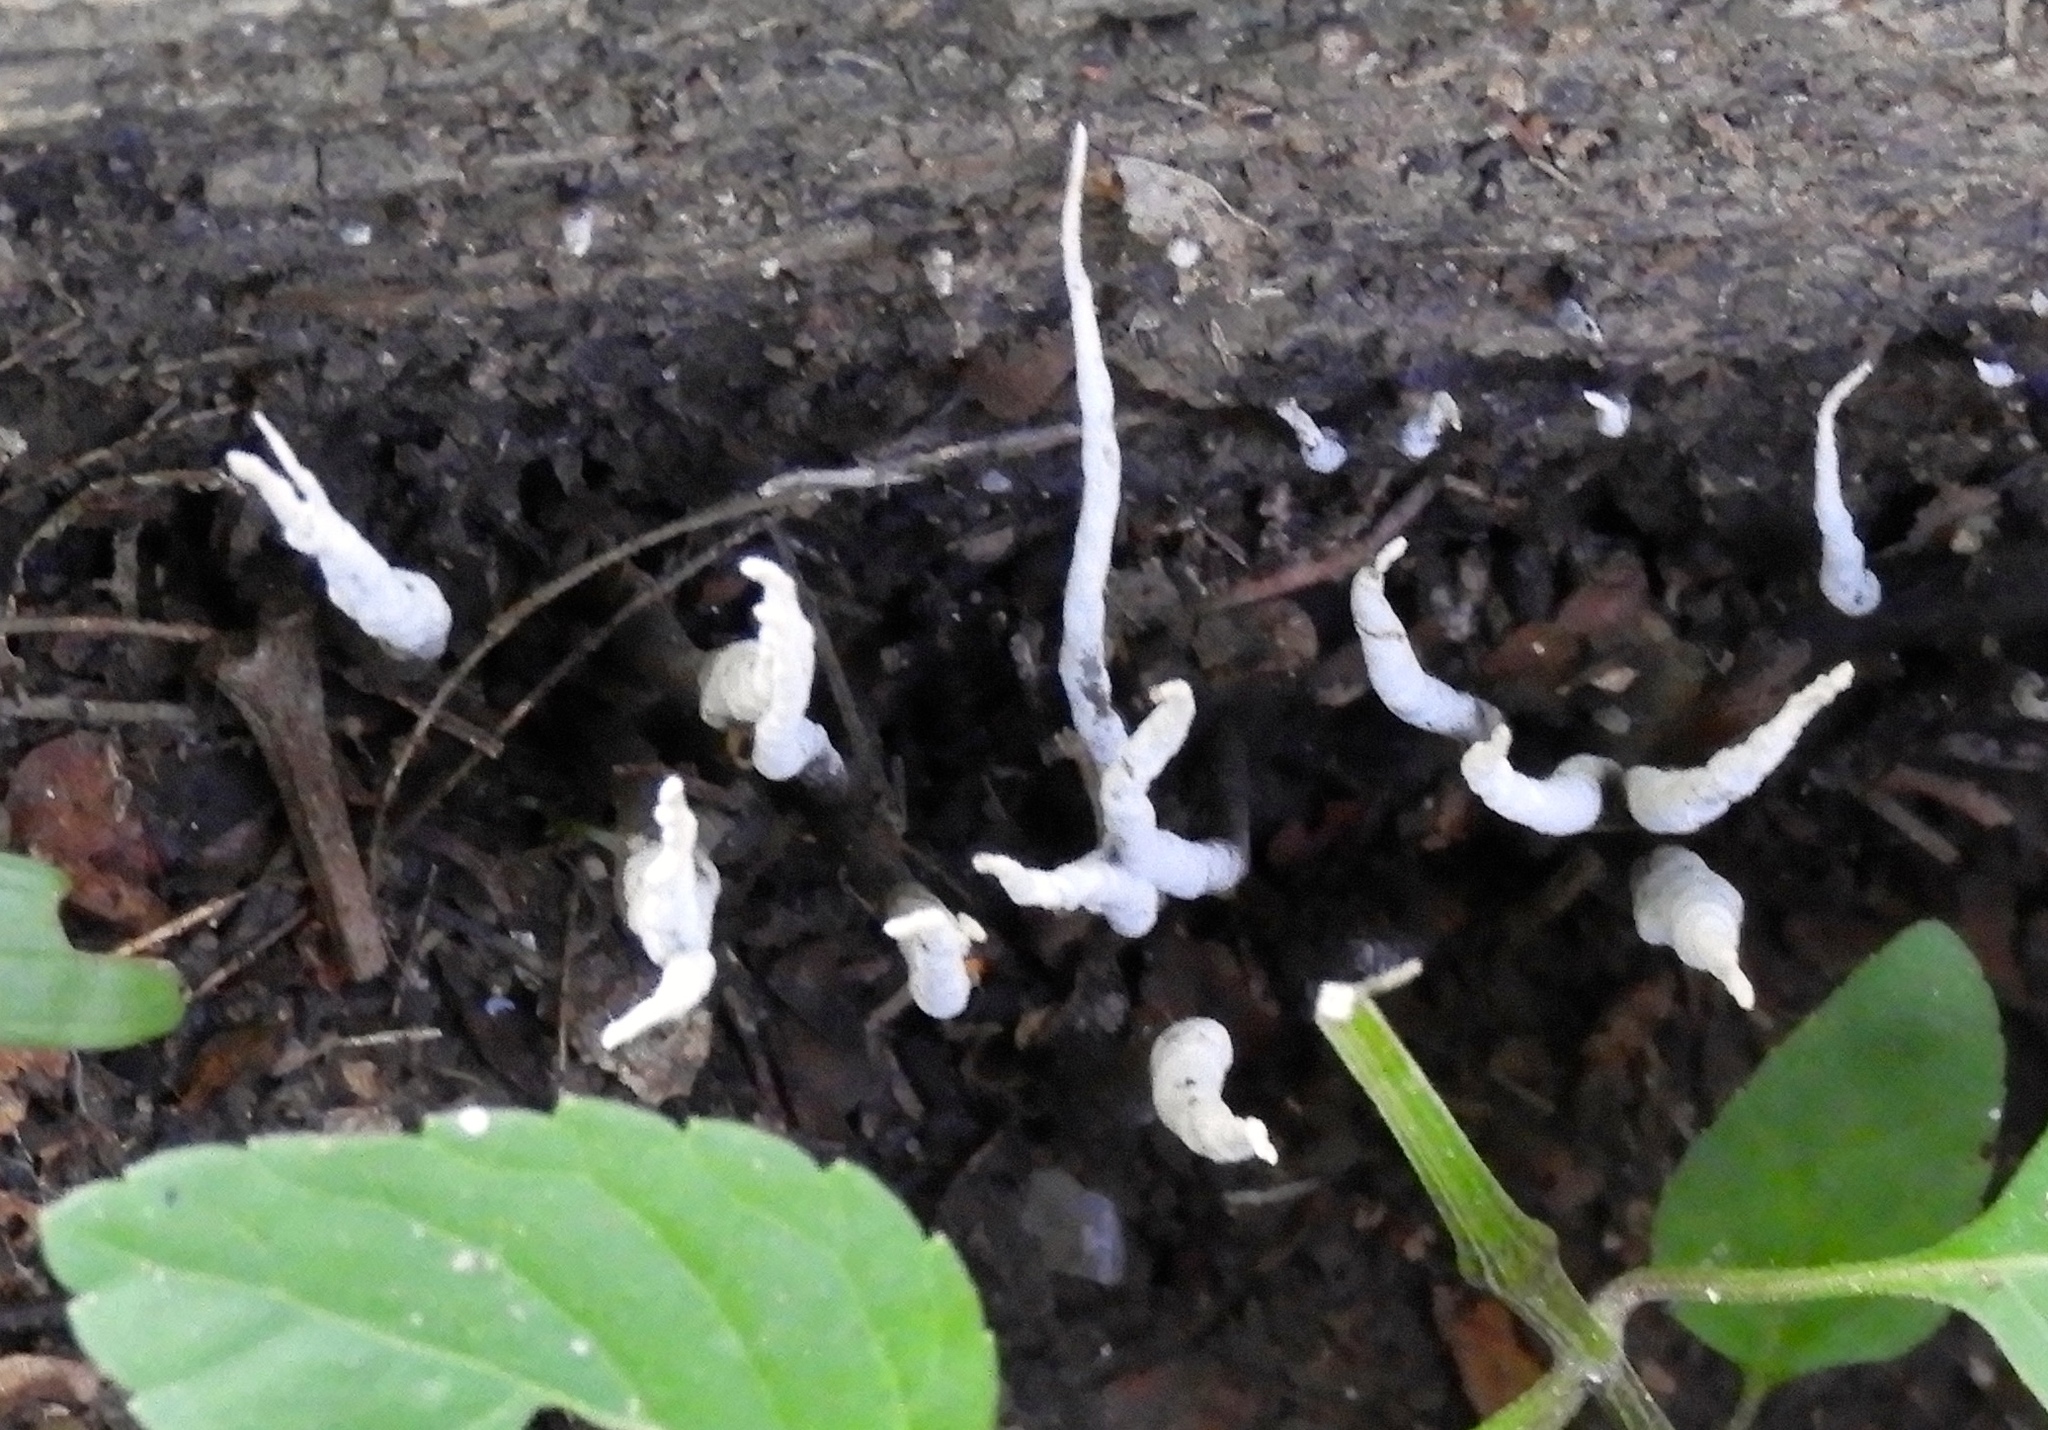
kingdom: Fungi
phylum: Ascomycota
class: Sordariomycetes
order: Xylariales
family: Xylariaceae
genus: Xylaria
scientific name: Xylaria
